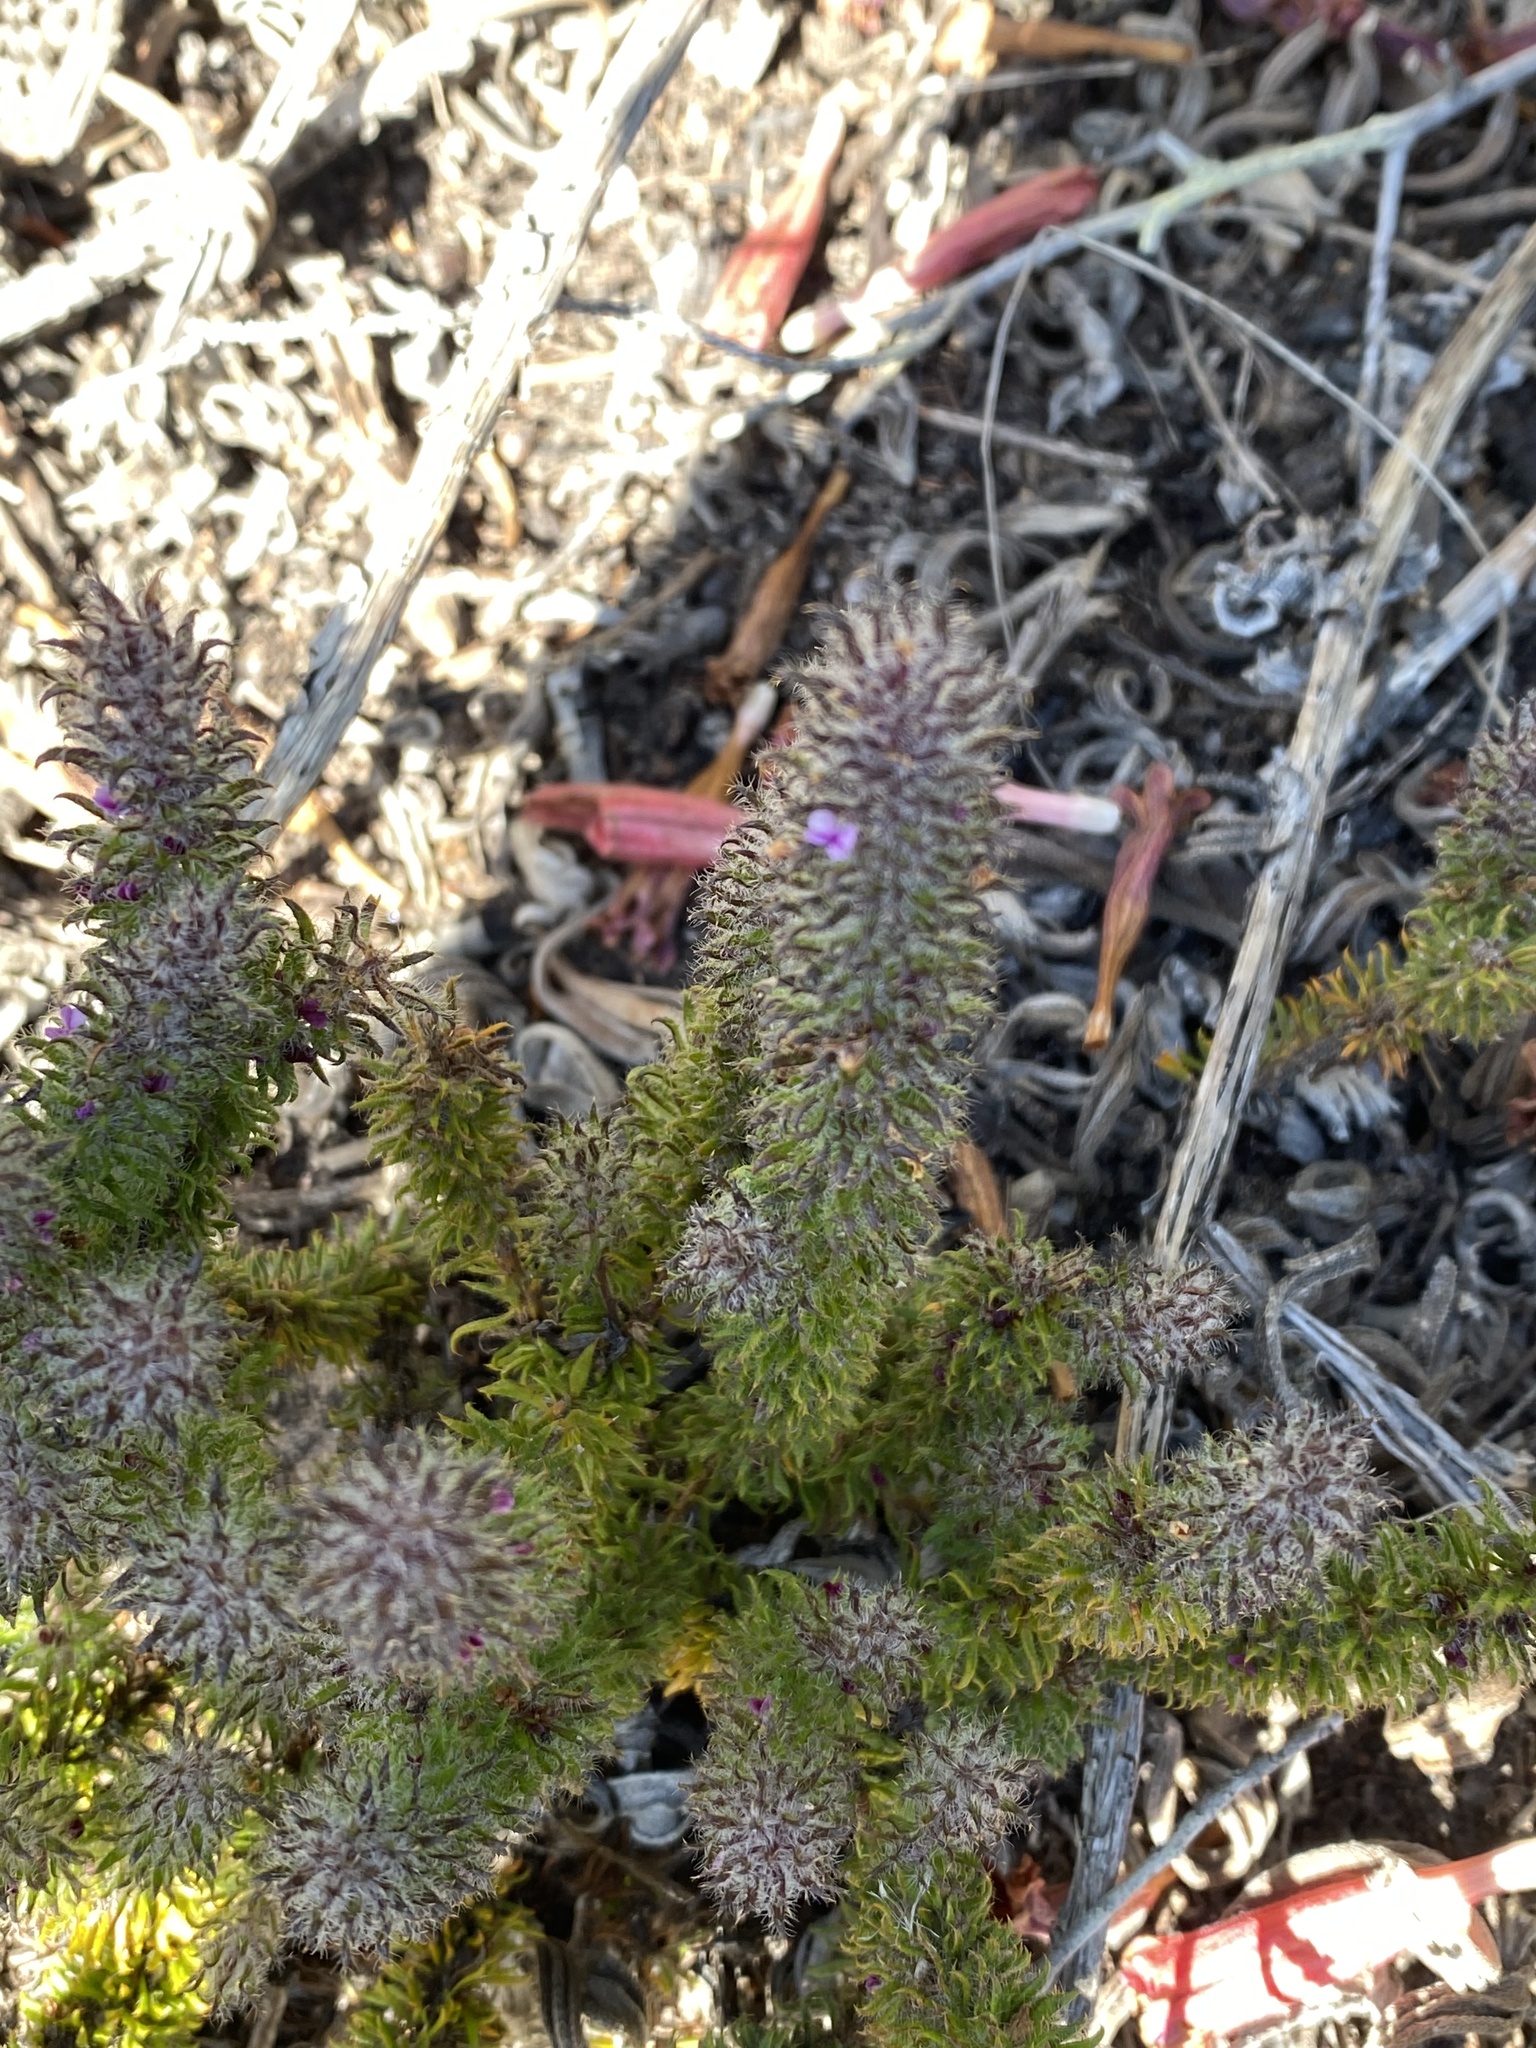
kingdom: Plantae
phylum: Tracheophyta
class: Magnoliopsida
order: Fabales
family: Polygalaceae
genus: Muraltia
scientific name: Muraltia ciliaris
